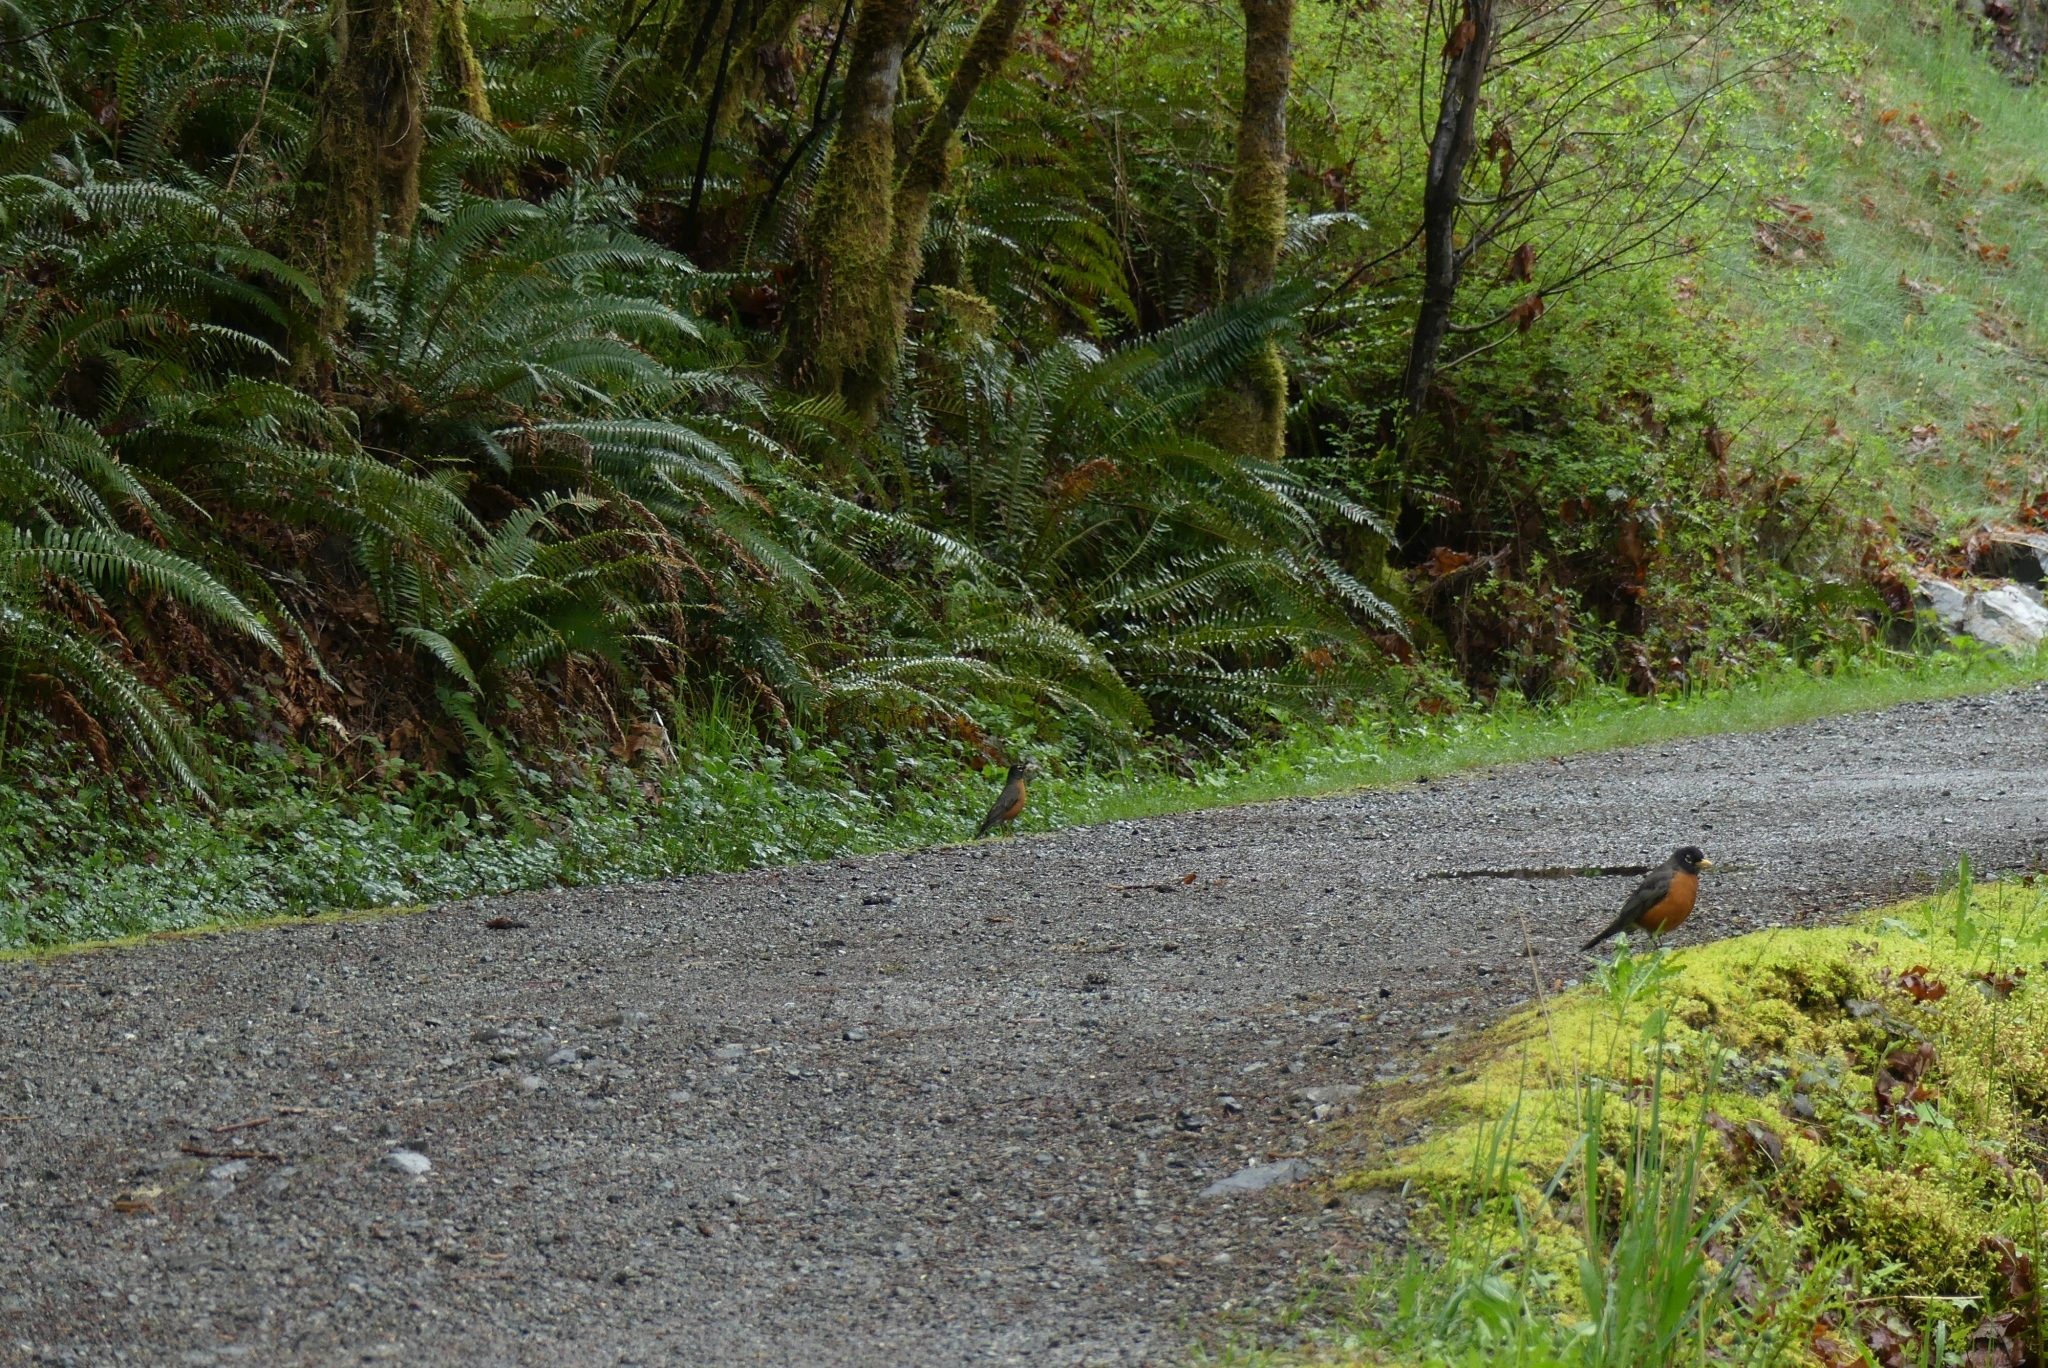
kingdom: Animalia
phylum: Chordata
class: Aves
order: Passeriformes
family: Turdidae
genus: Turdus
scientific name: Turdus migratorius
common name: American robin
